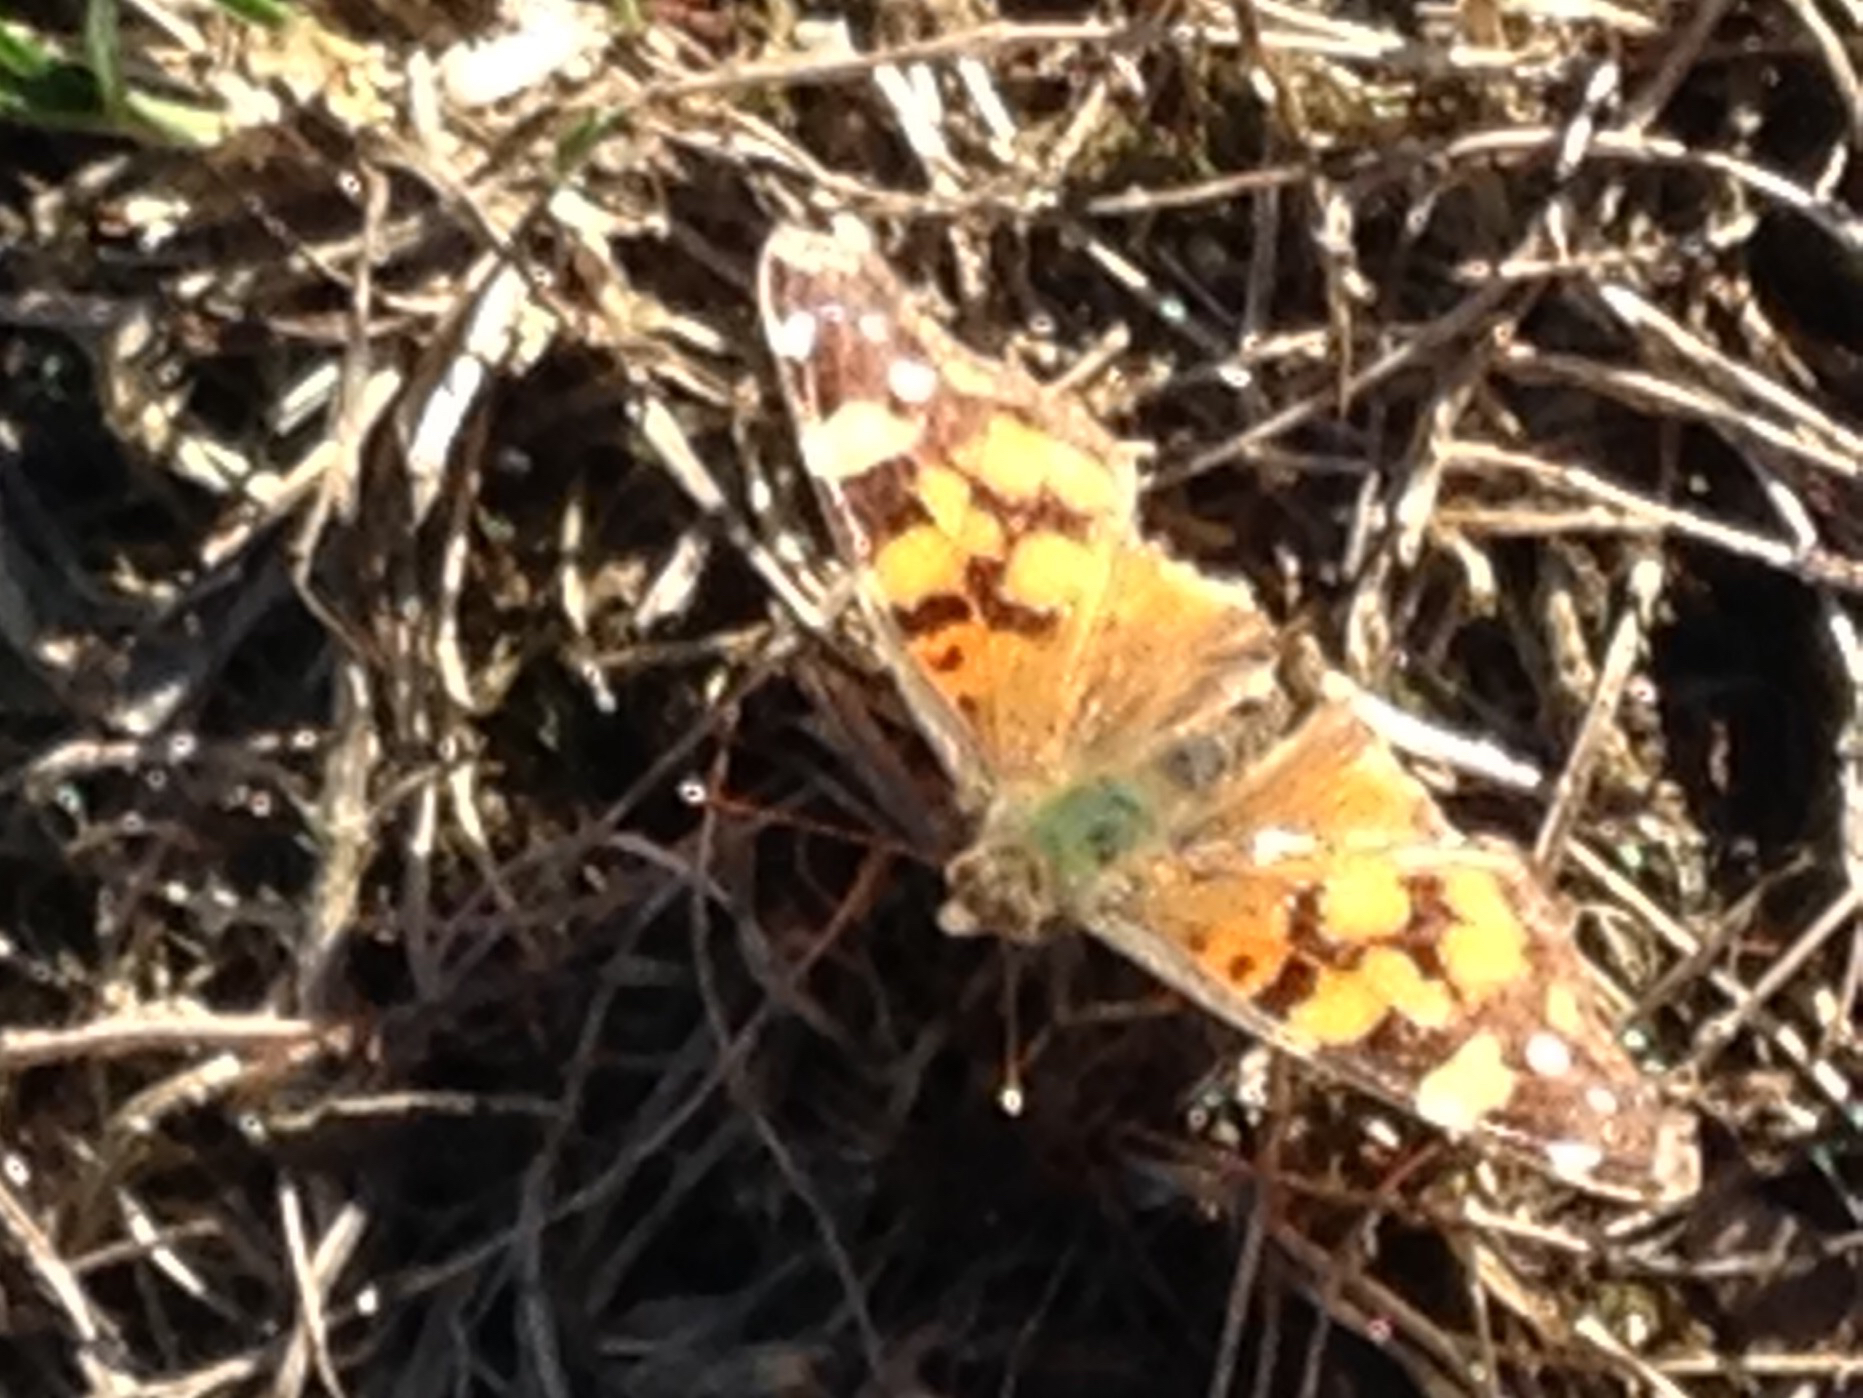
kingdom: Animalia
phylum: Arthropoda
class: Insecta
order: Lepidoptera
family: Nymphalidae
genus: Vanessa
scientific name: Vanessa annabella
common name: West coast lady
